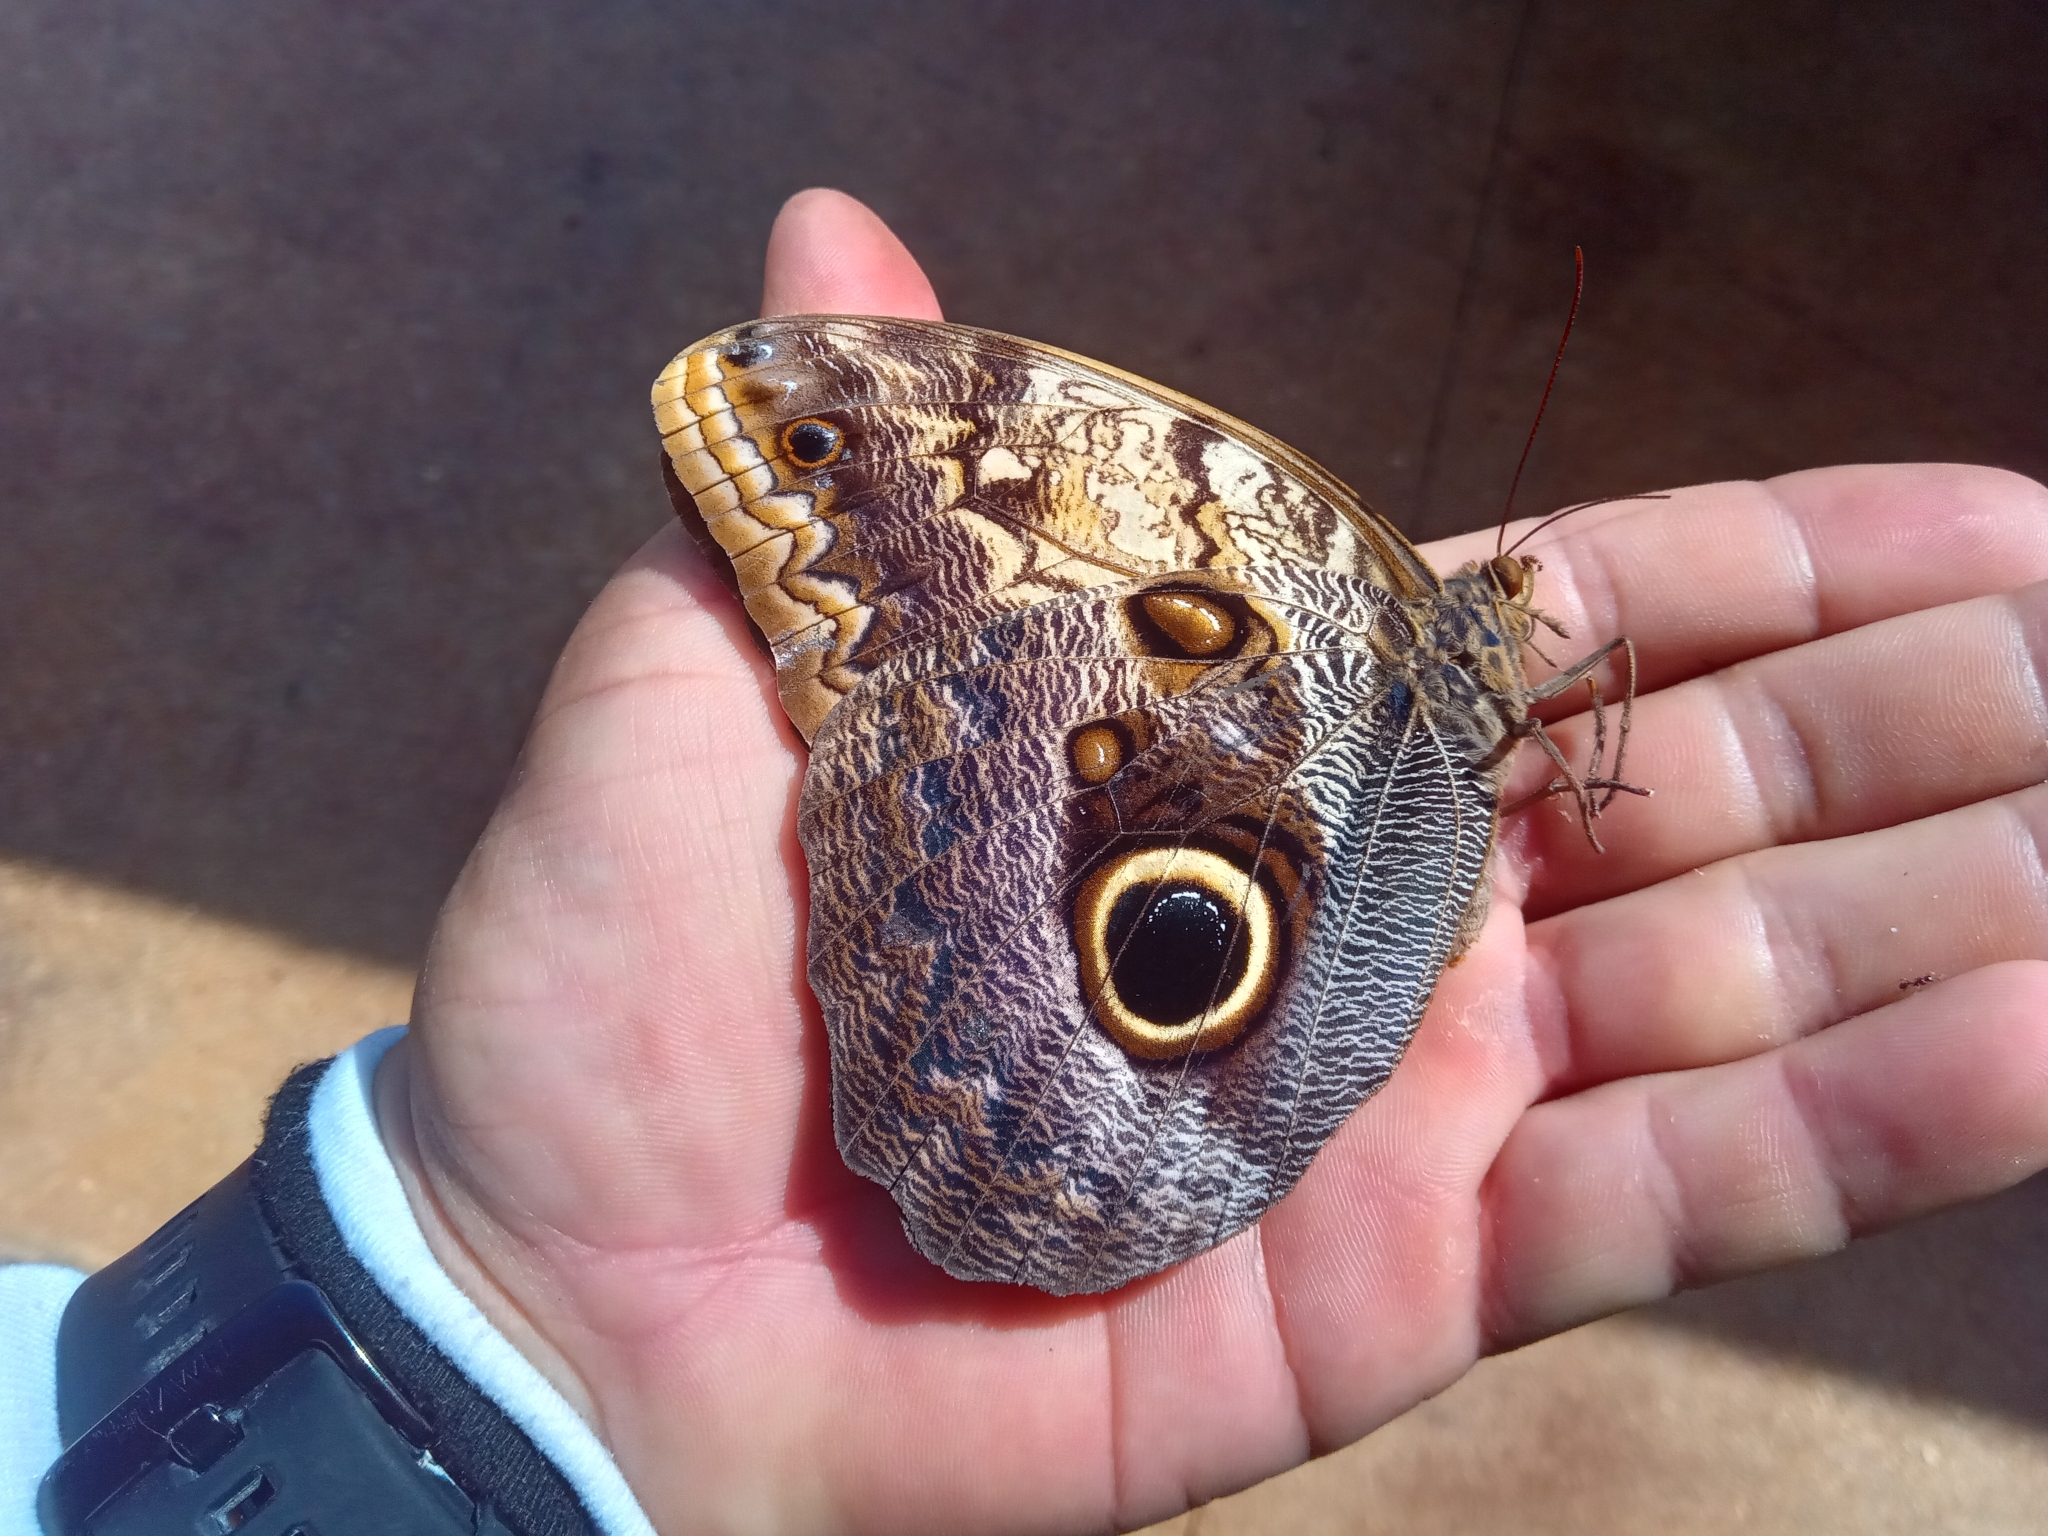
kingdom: Animalia
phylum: Arthropoda
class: Insecta
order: Lepidoptera
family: Nymphalidae
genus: Caligo
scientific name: Caligo telamonius
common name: Pale owl-butterfly
